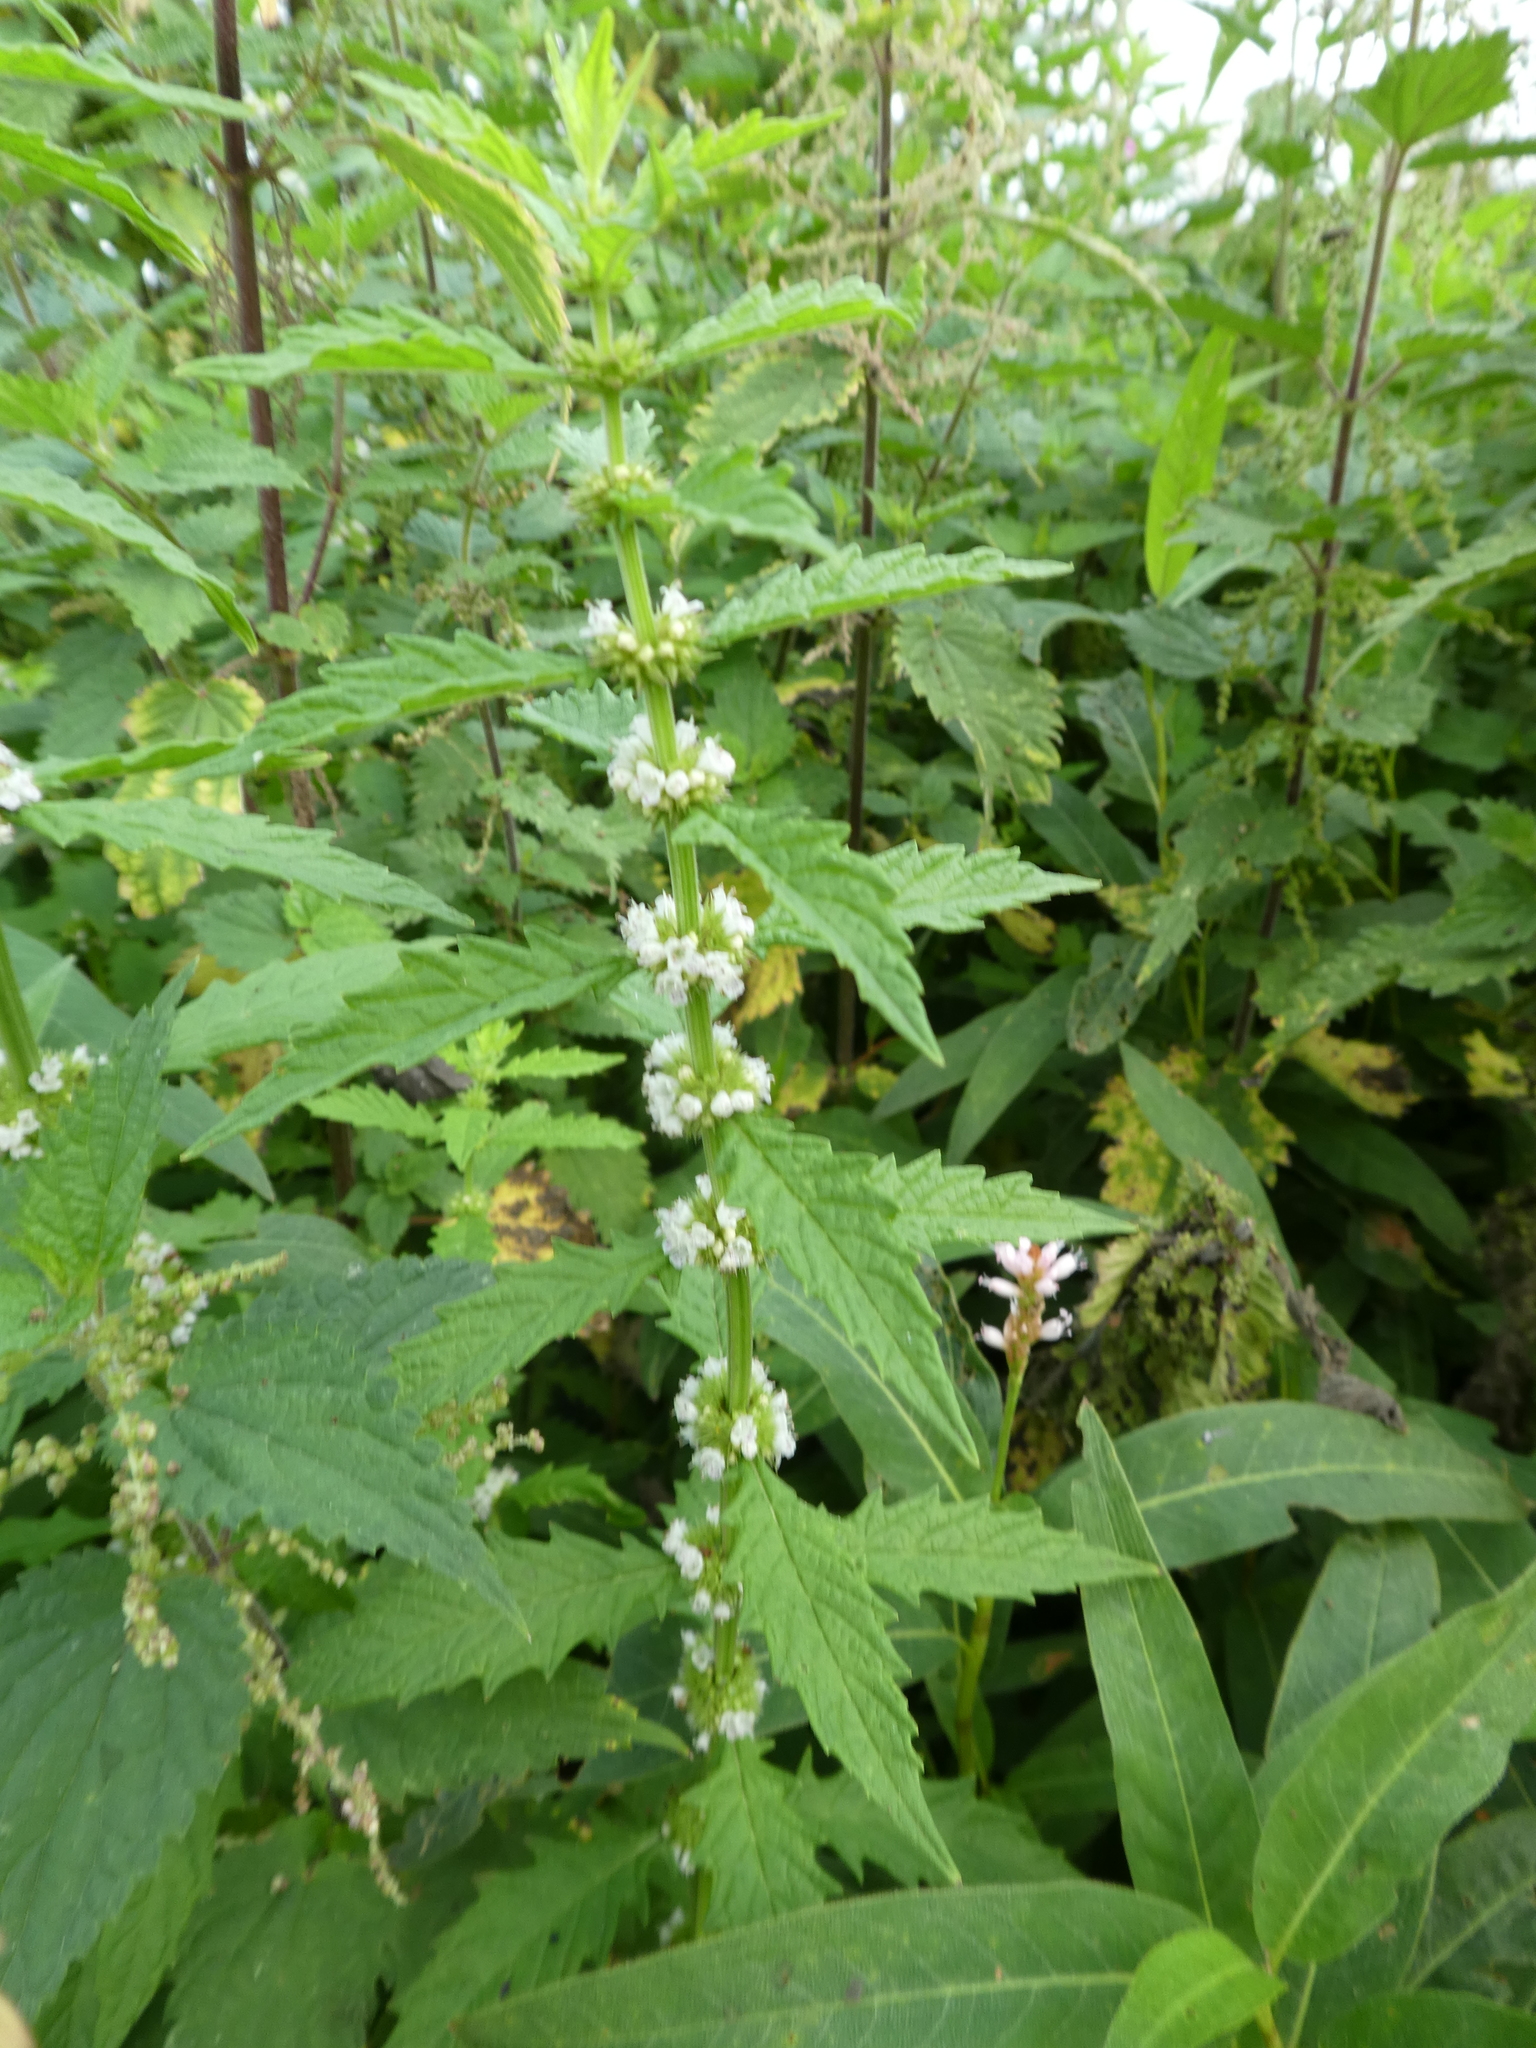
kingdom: Plantae
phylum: Tracheophyta
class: Magnoliopsida
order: Lamiales
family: Lamiaceae
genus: Lycopus
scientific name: Lycopus europaeus
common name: European bugleweed
